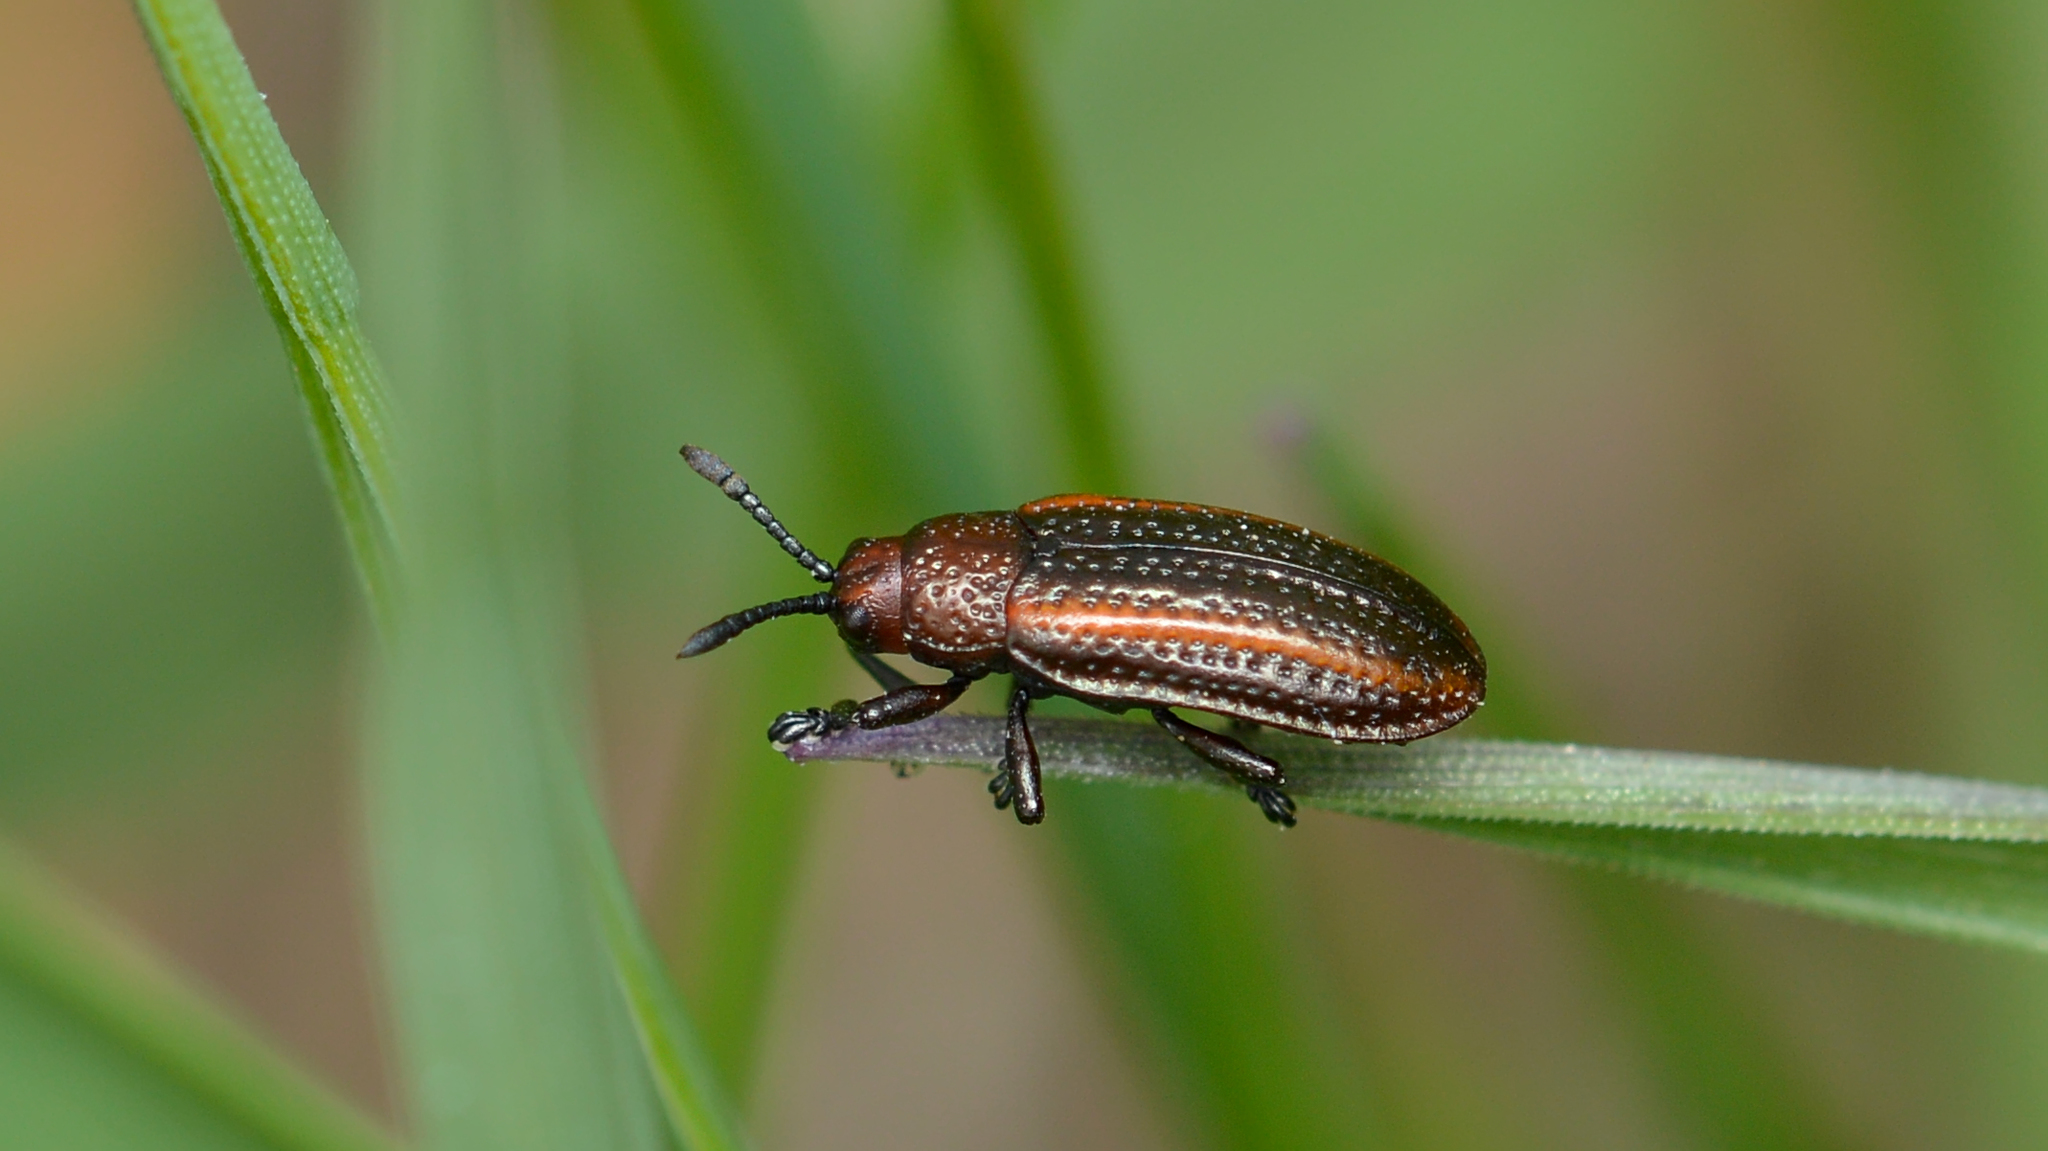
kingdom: Animalia
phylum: Arthropoda
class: Insecta
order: Coleoptera
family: Chrysomelidae
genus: Microrhopala
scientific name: Microrhopala vittata
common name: Goldenrod leaf miner beetle
